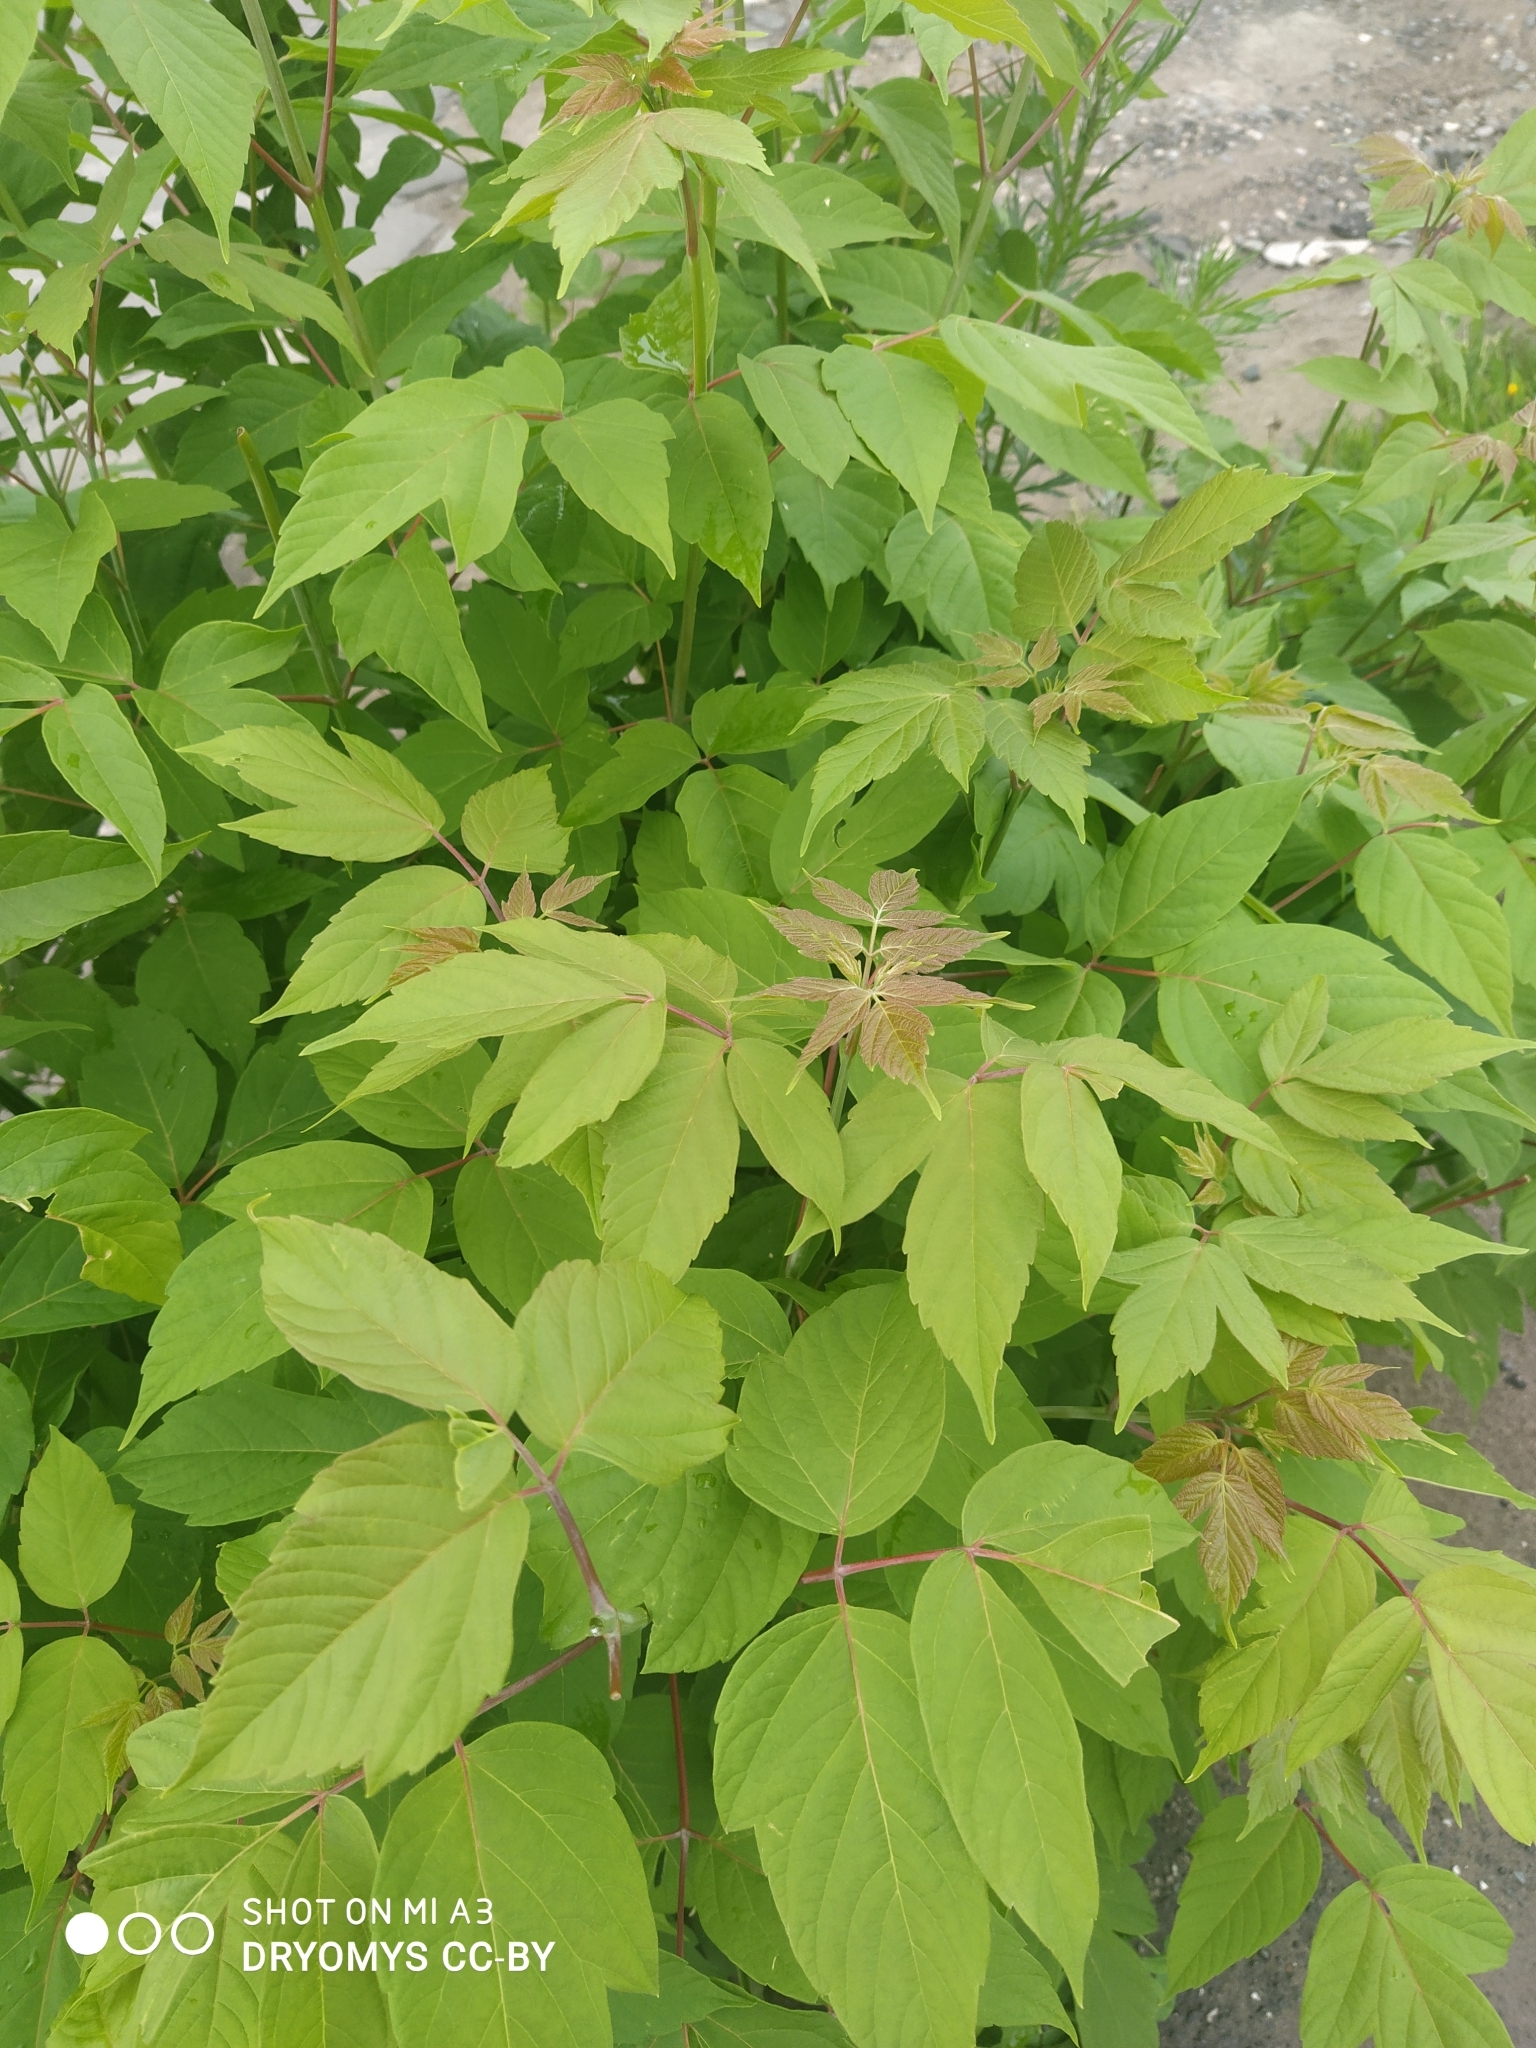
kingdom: Plantae
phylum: Tracheophyta
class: Magnoliopsida
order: Sapindales
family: Sapindaceae
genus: Acer
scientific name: Acer negundo
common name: Ashleaf maple
